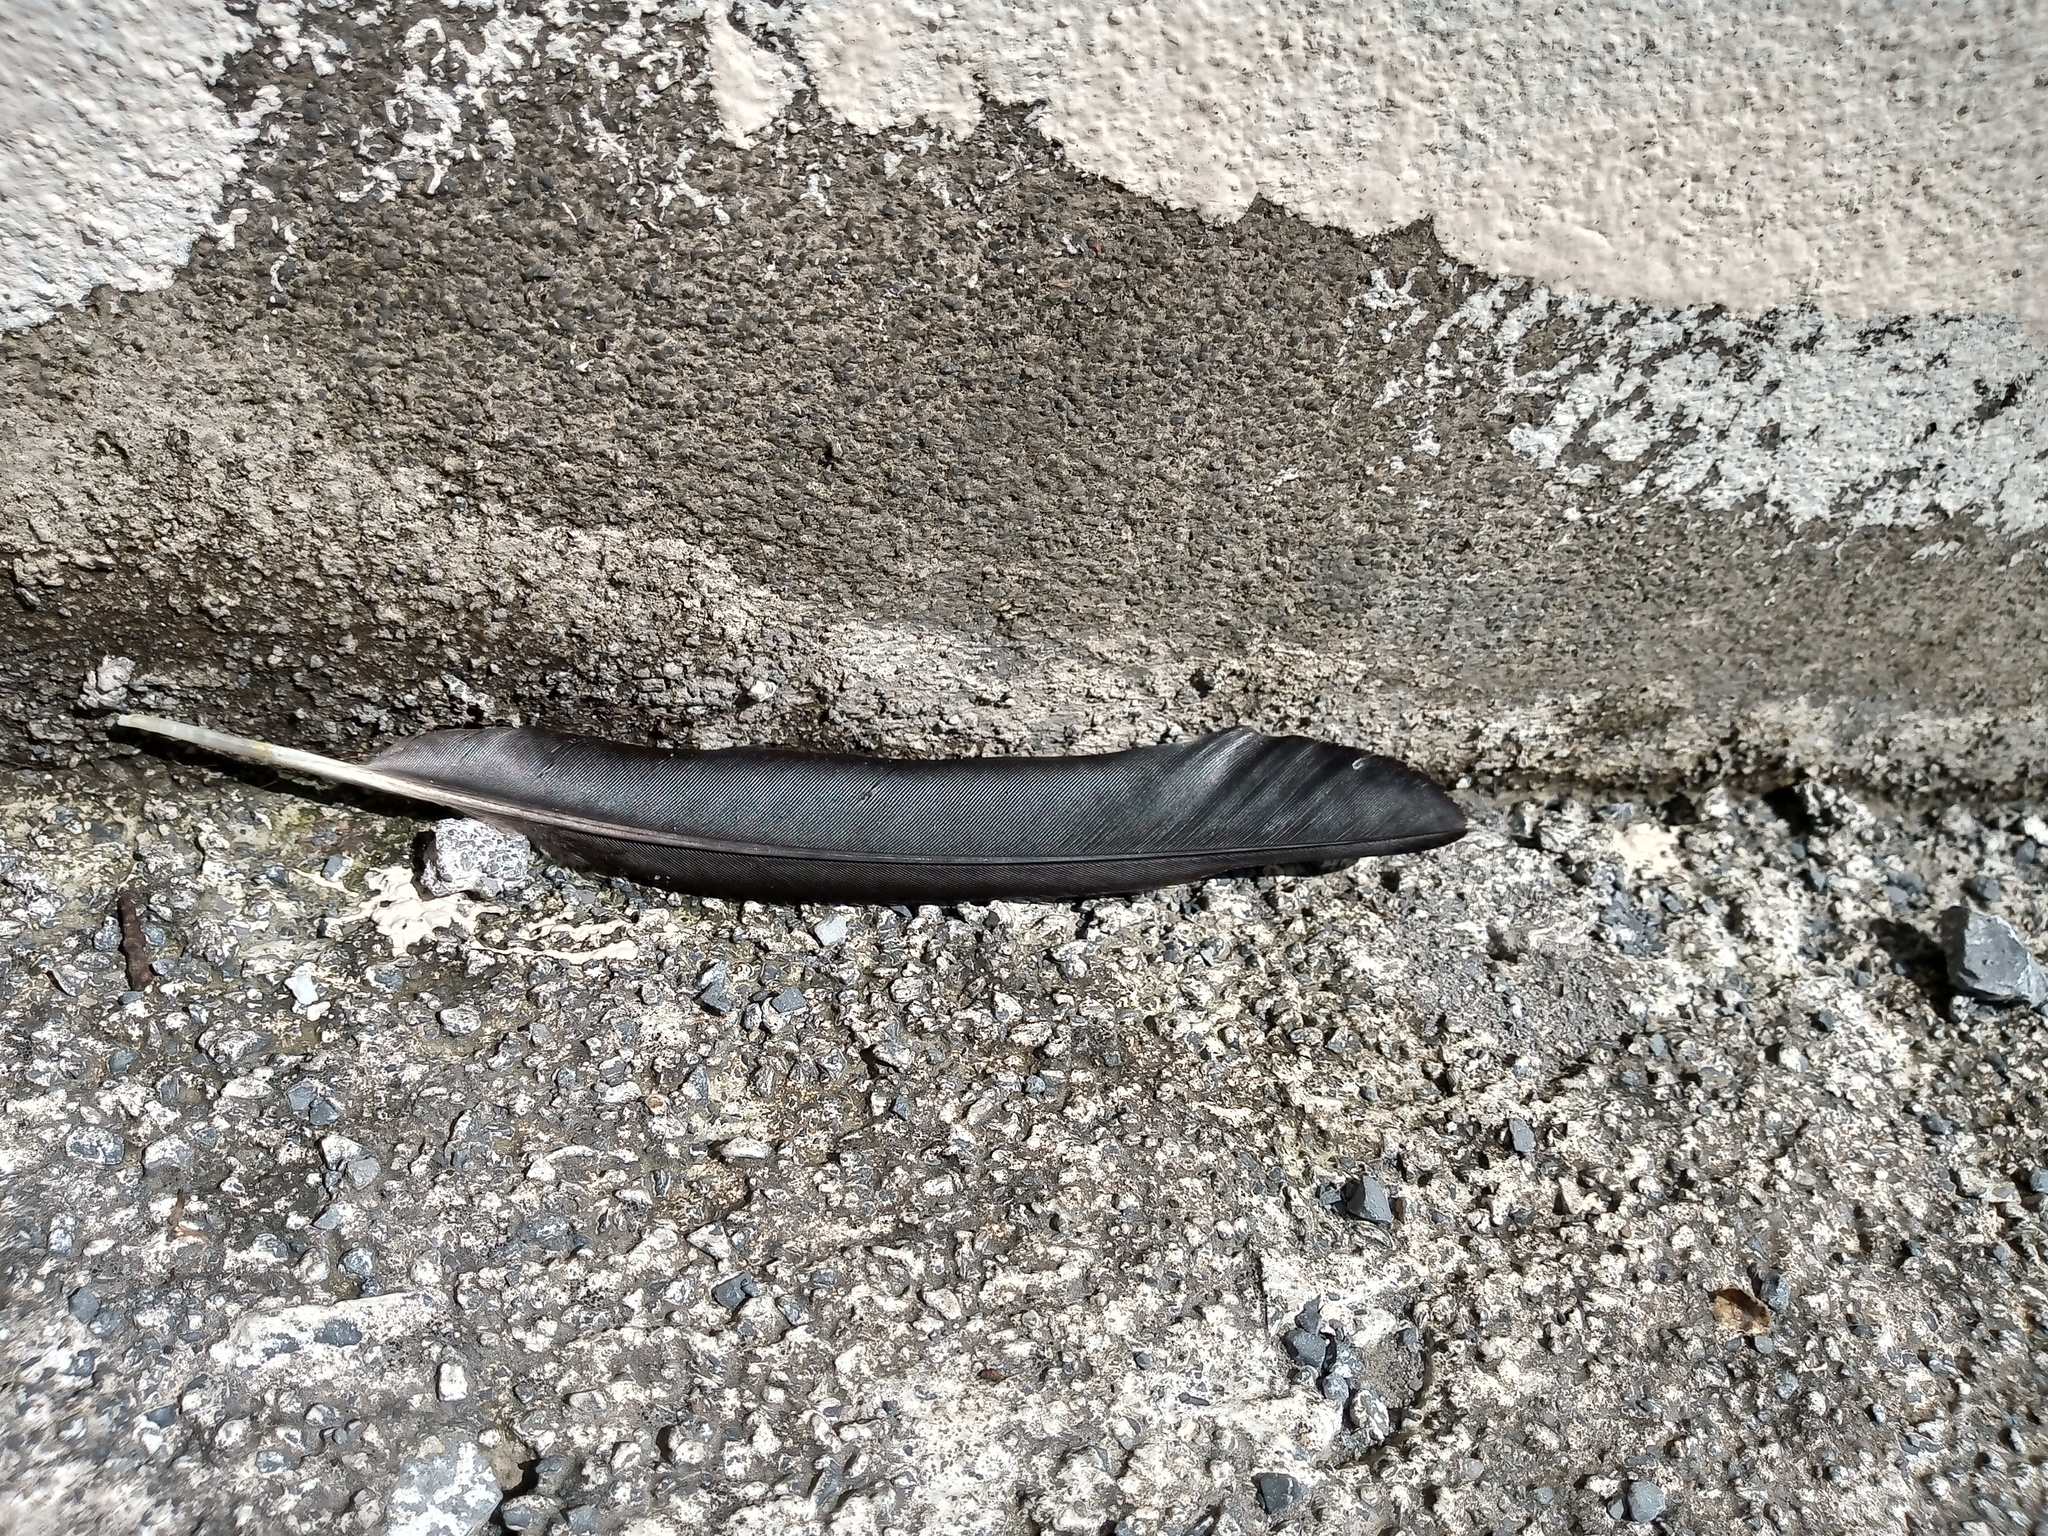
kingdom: Animalia
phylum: Chordata
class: Aves
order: Passeriformes
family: Icteridae
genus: Quiscalus
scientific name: Quiscalus mexicanus
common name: Great-tailed grackle
